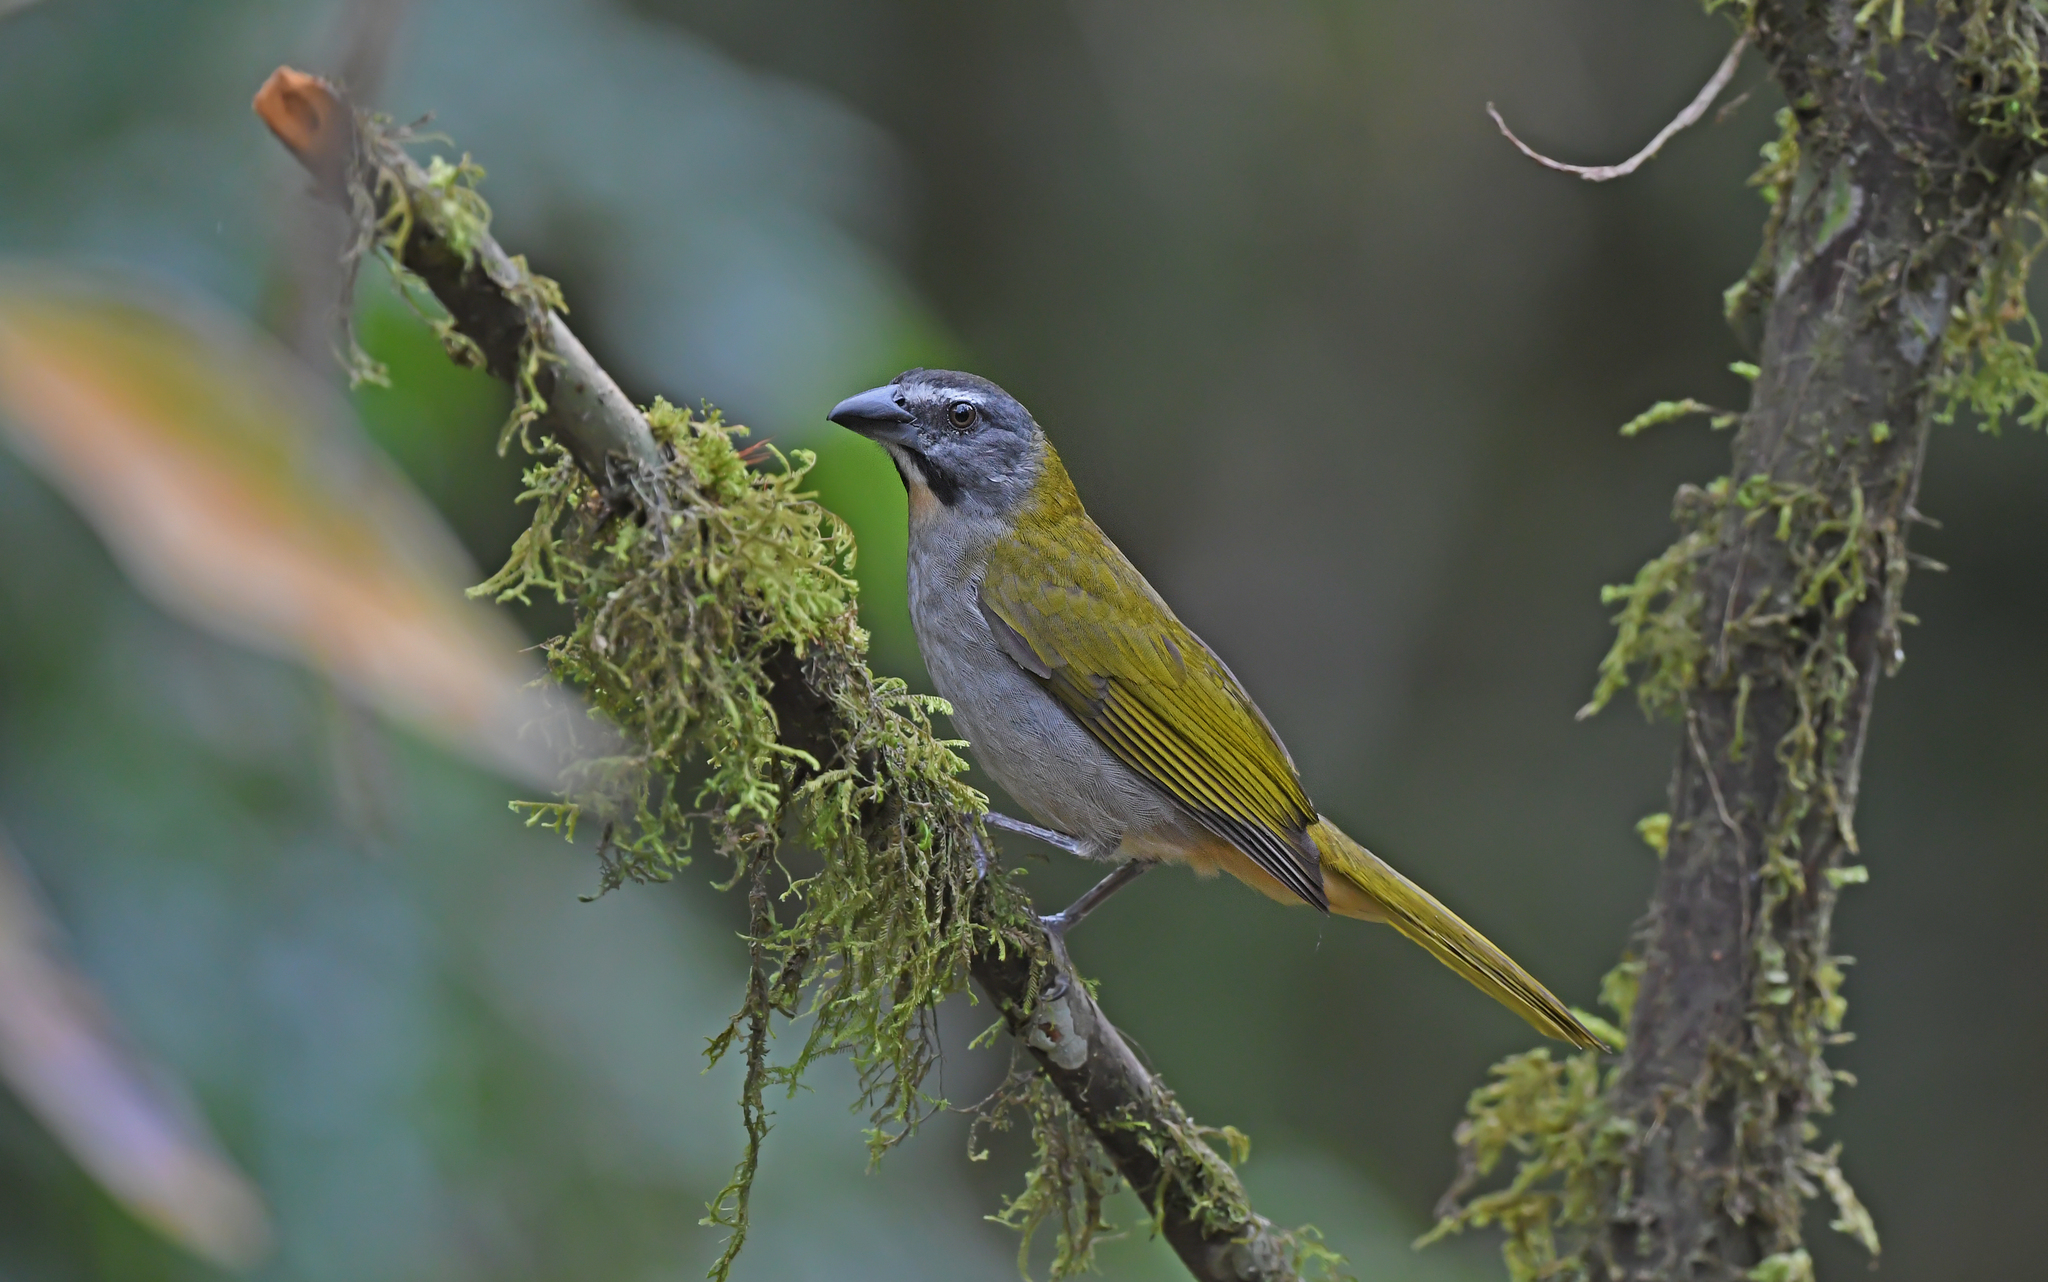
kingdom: Animalia
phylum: Chordata
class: Aves
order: Passeriformes
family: Thraupidae
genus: Saltator
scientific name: Saltator maximus
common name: Buff-throated saltator
